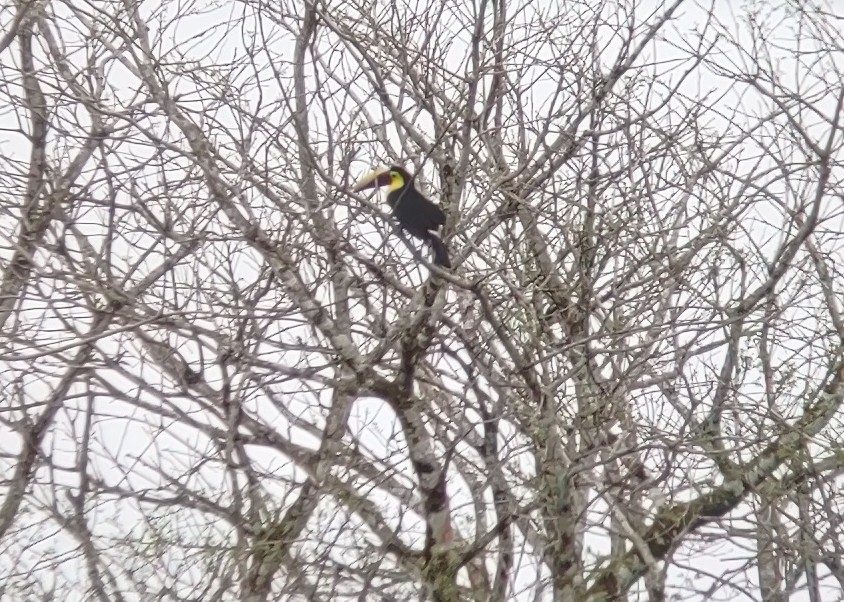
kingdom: Animalia
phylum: Chordata
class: Aves
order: Piciformes
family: Ramphastidae
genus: Ramphastos
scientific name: Ramphastos ambiguus
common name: Yellow-throated toucan
